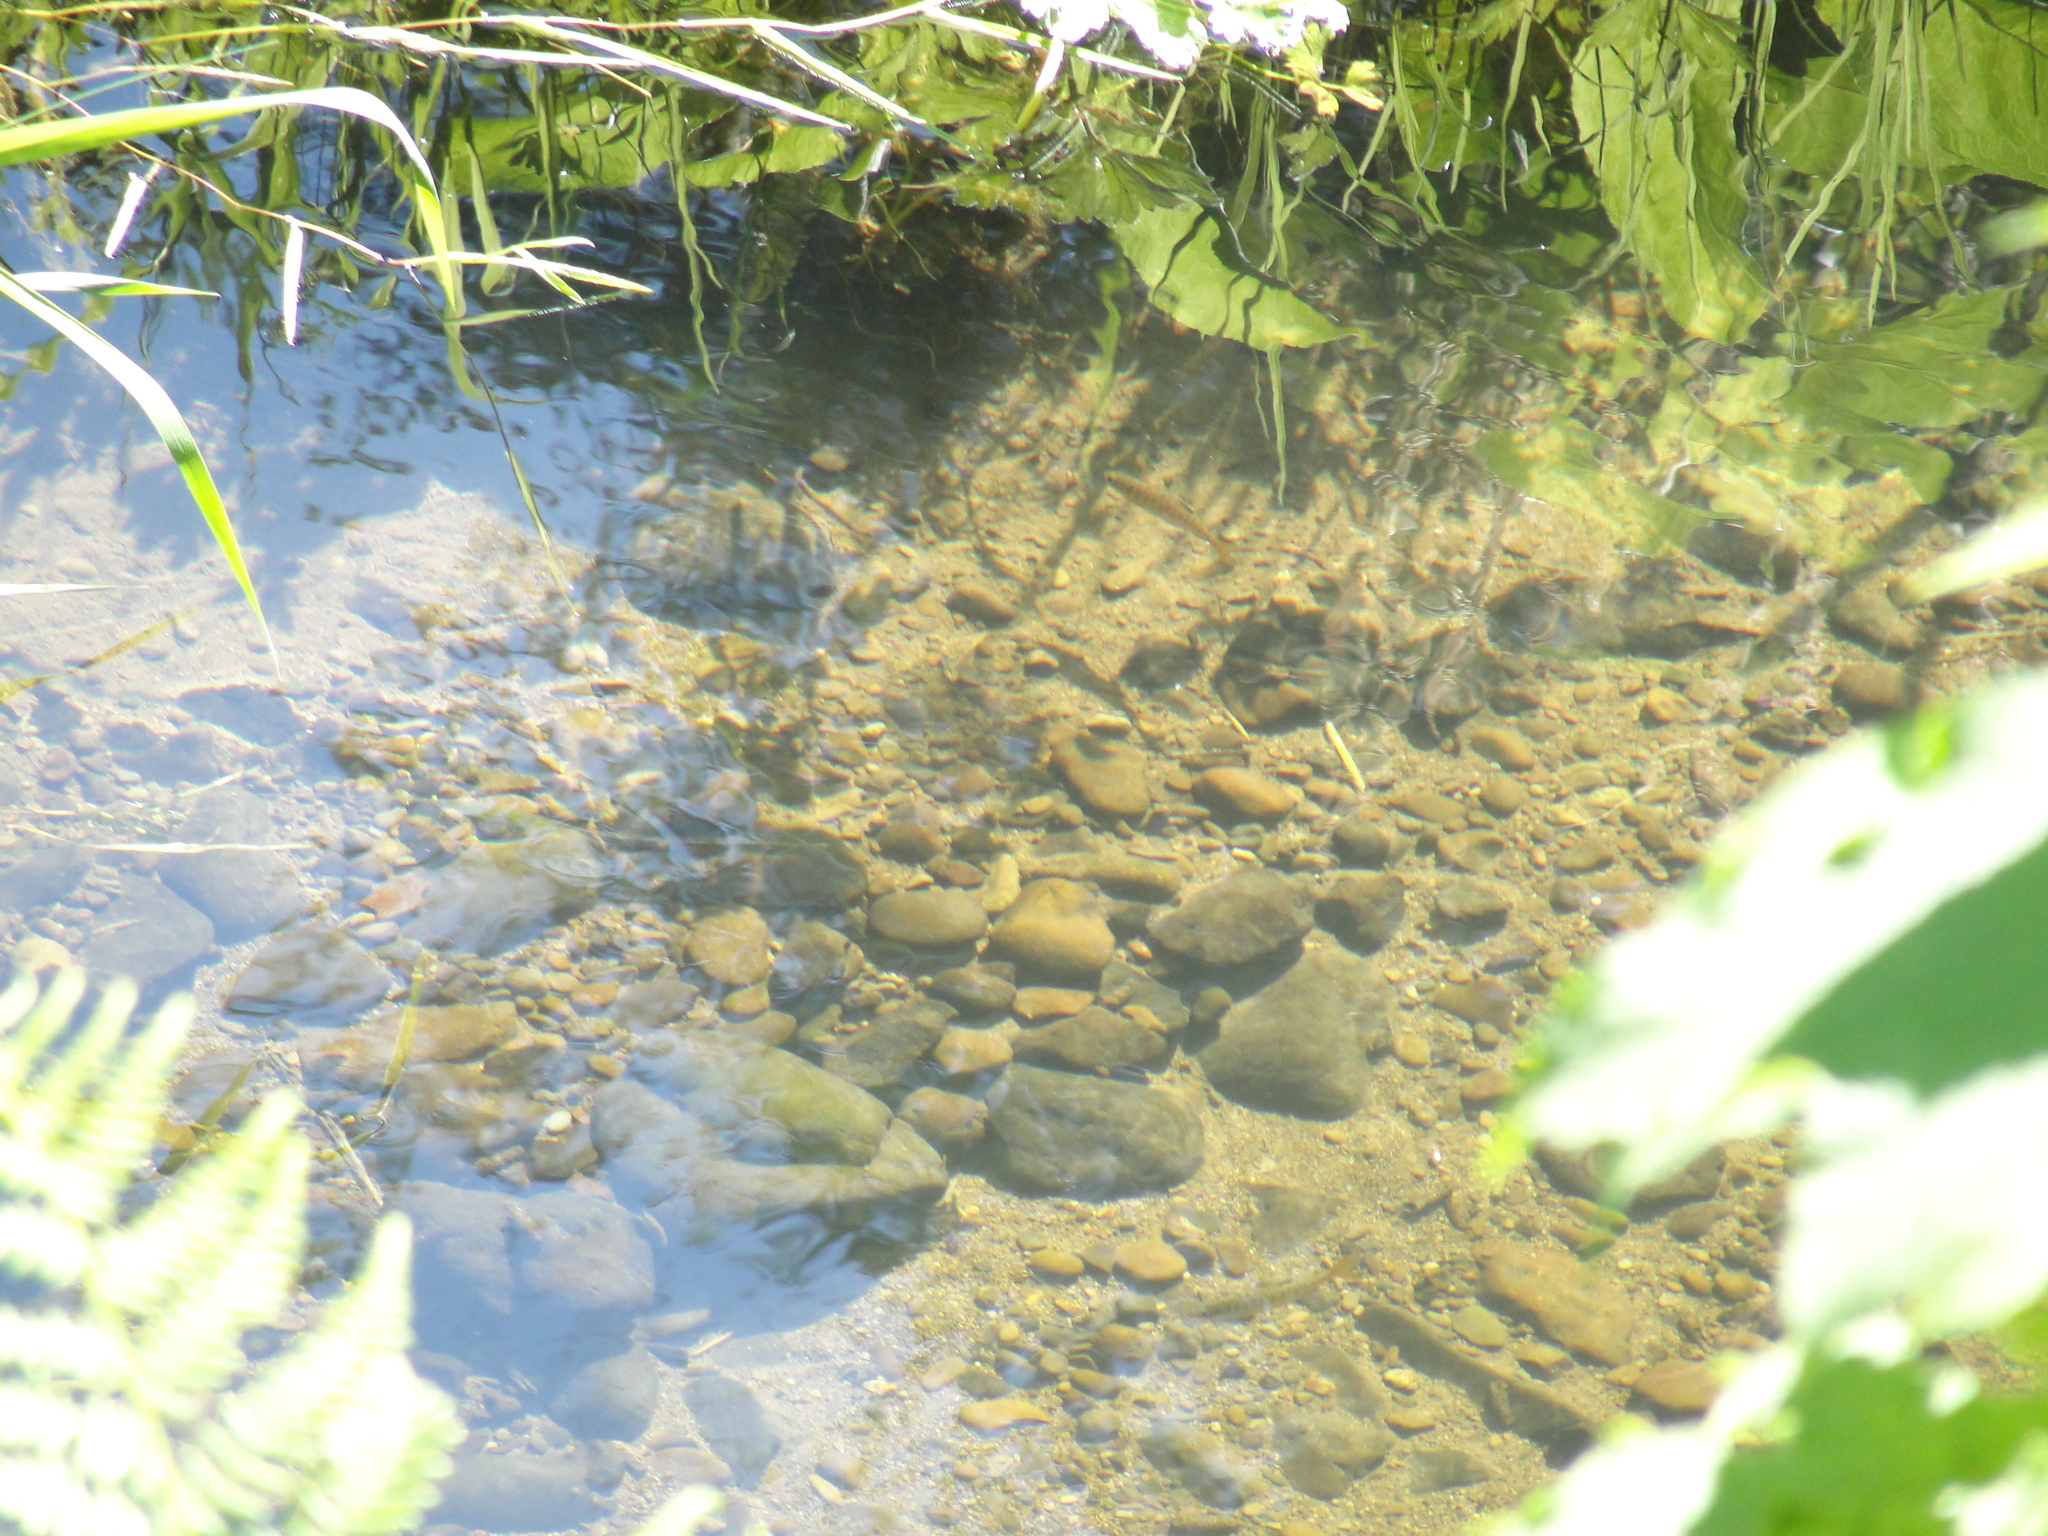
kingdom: Animalia
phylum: Chordata
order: Salmoniformes
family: Salmonidae
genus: Oncorhynchus
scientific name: Oncorhynchus kisutch
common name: Coho salmon
